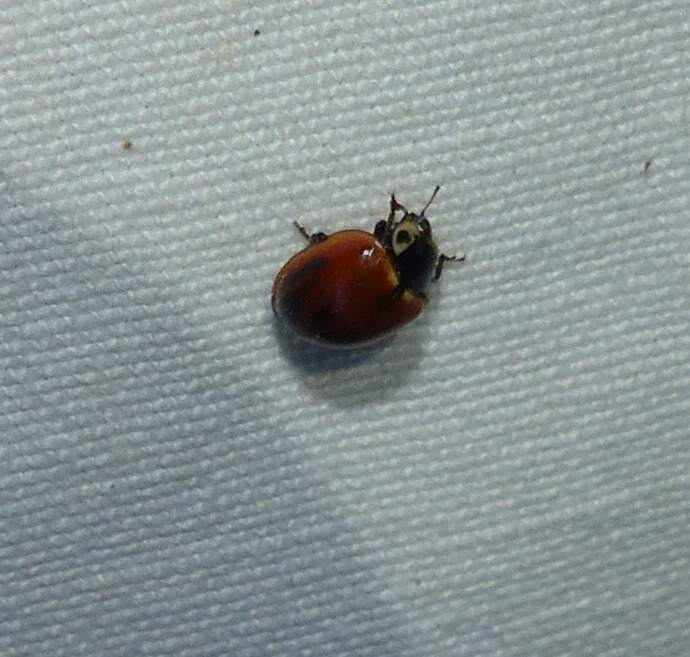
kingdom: Animalia
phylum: Arthropoda
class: Insecta
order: Coleoptera
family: Coccinellidae
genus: Myzia
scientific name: Myzia pullata
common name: Streaked lady beetle
